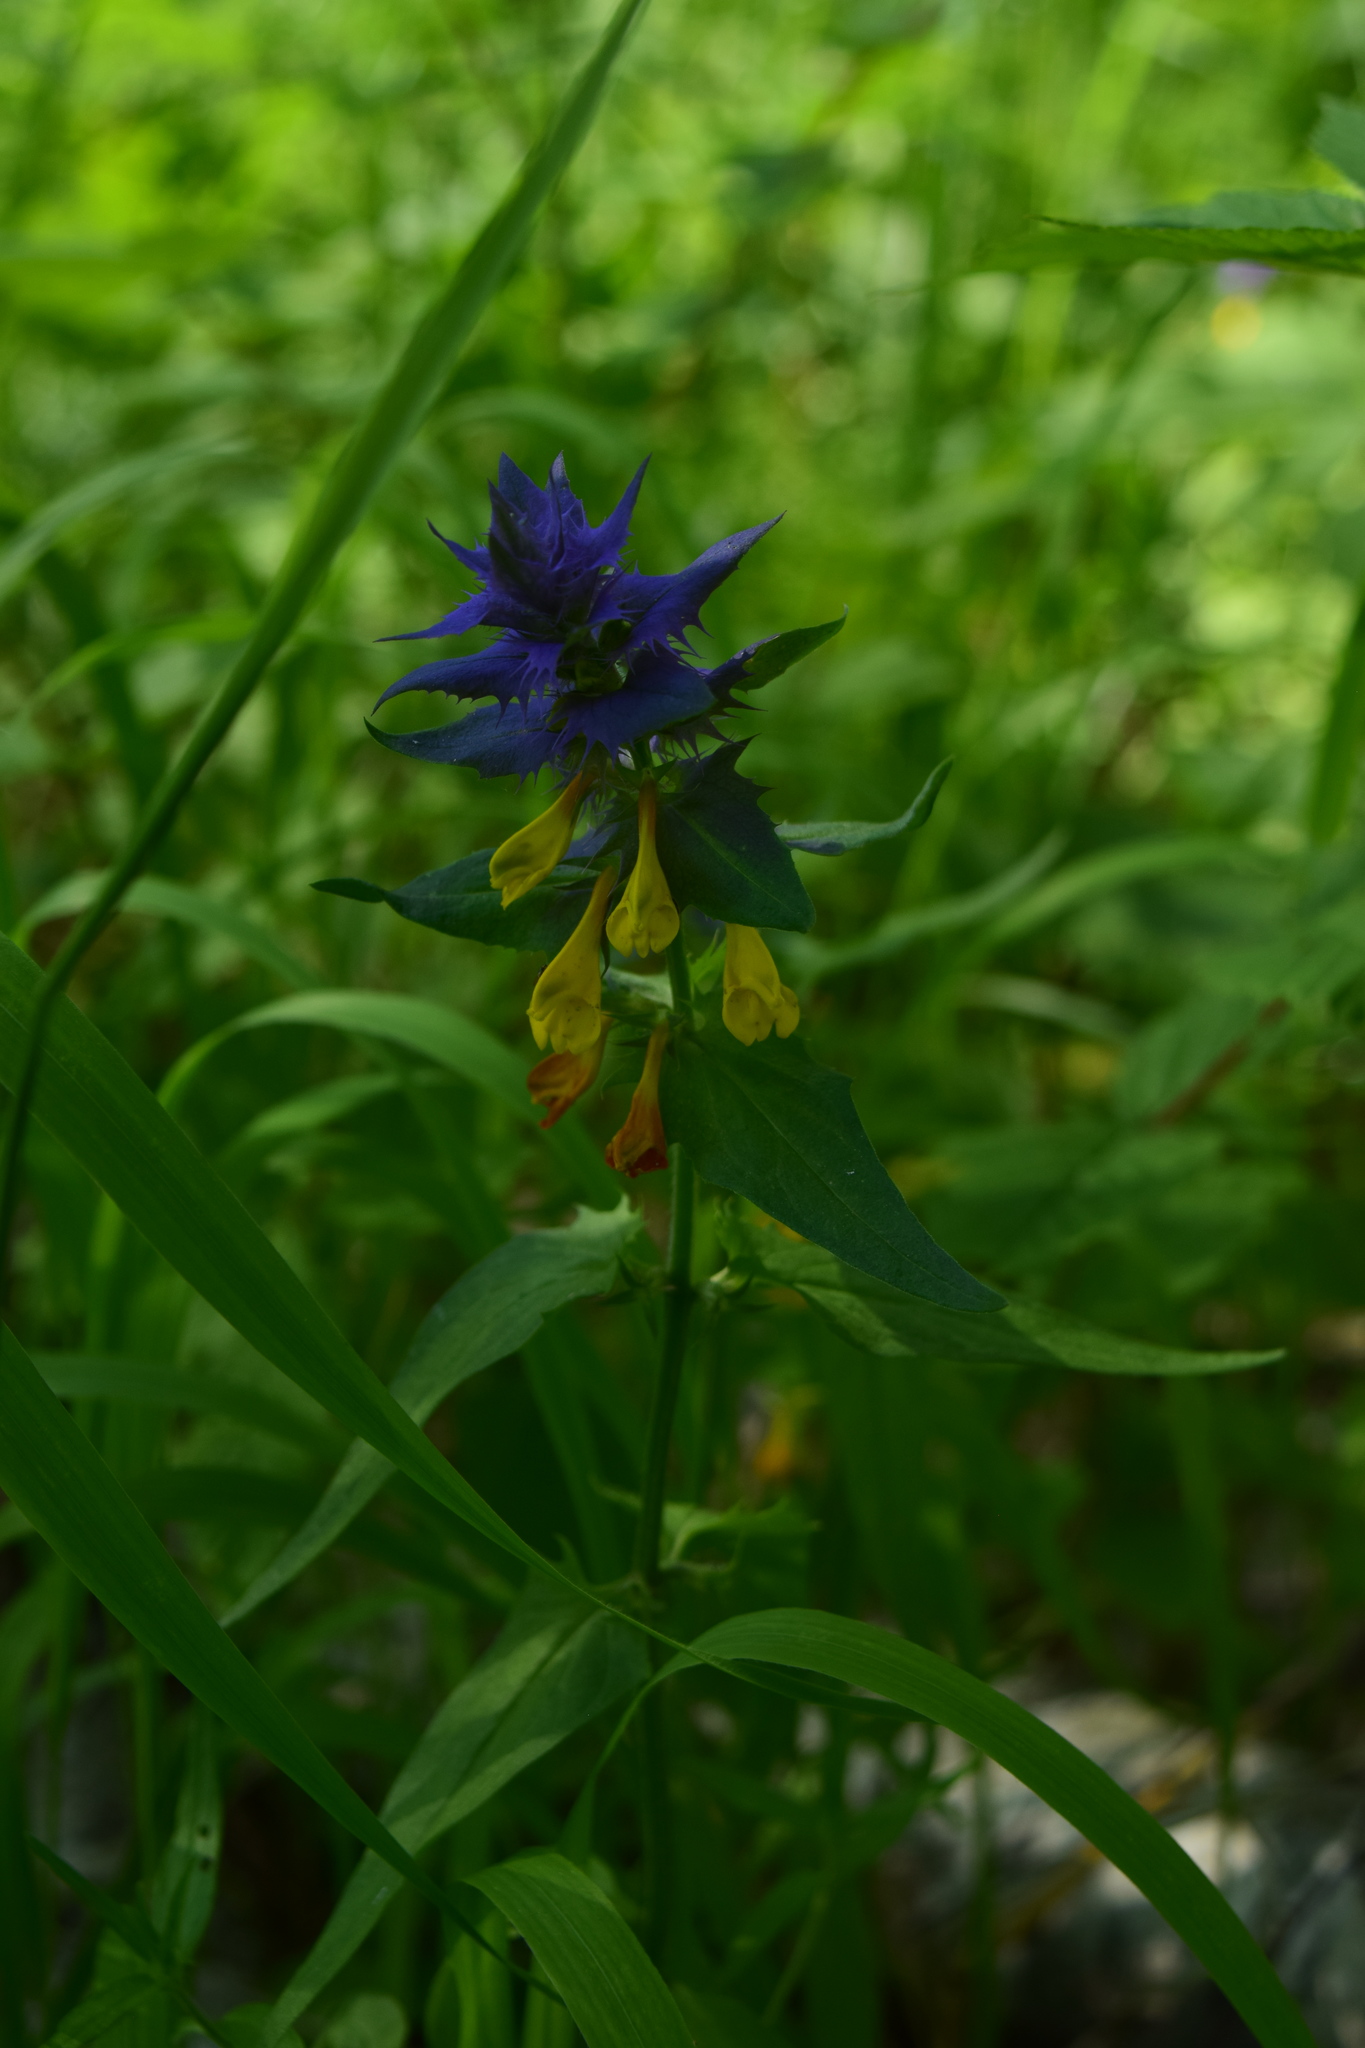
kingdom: Plantae
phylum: Tracheophyta
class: Magnoliopsida
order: Lamiales
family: Orobanchaceae
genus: Melampyrum
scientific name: Melampyrum nemorosum
